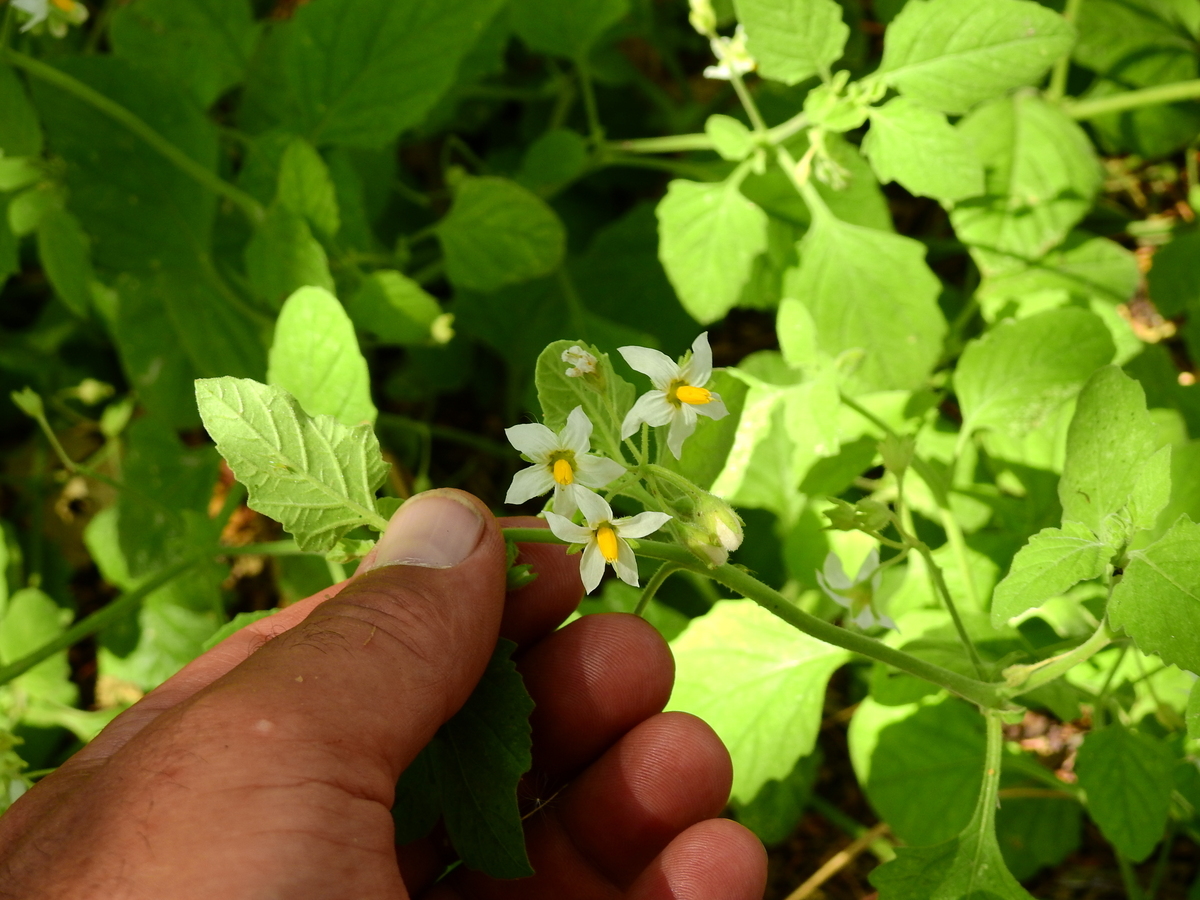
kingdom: Plantae
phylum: Tracheophyta
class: Magnoliopsida
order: Solanales
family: Solanaceae
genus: Solanum
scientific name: Solanum tweedianum
